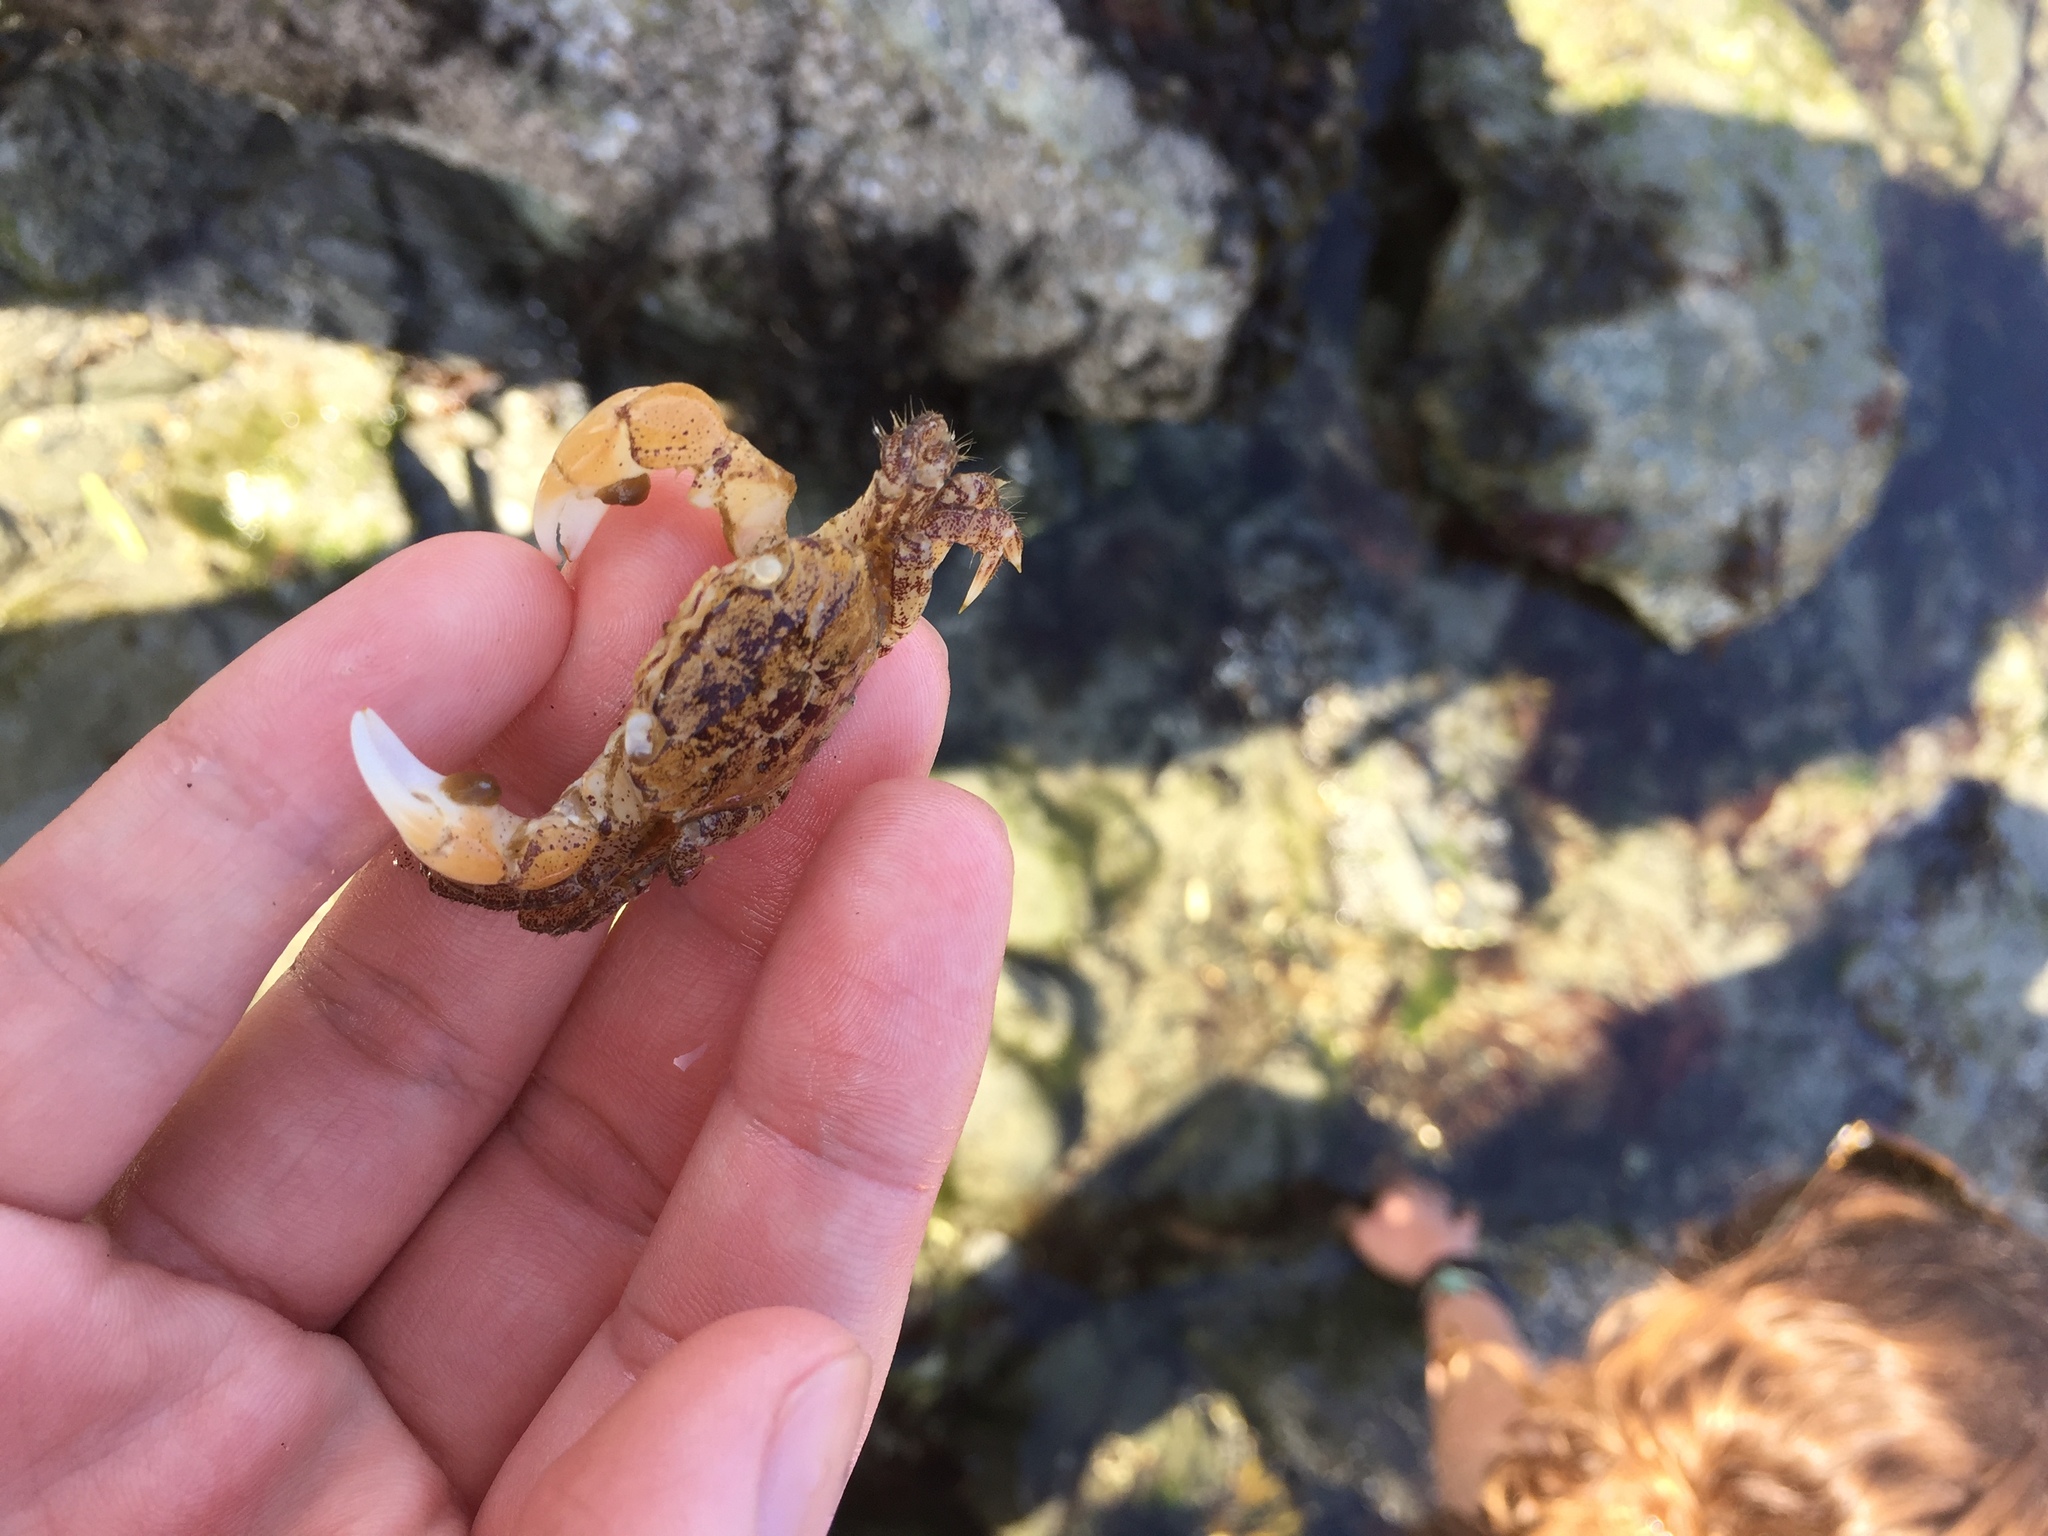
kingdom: Animalia
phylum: Arthropoda
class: Malacostraca
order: Decapoda
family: Varunidae
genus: Hemigrapsus
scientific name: Hemigrapsus oregonensis
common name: Yellow shore crab
